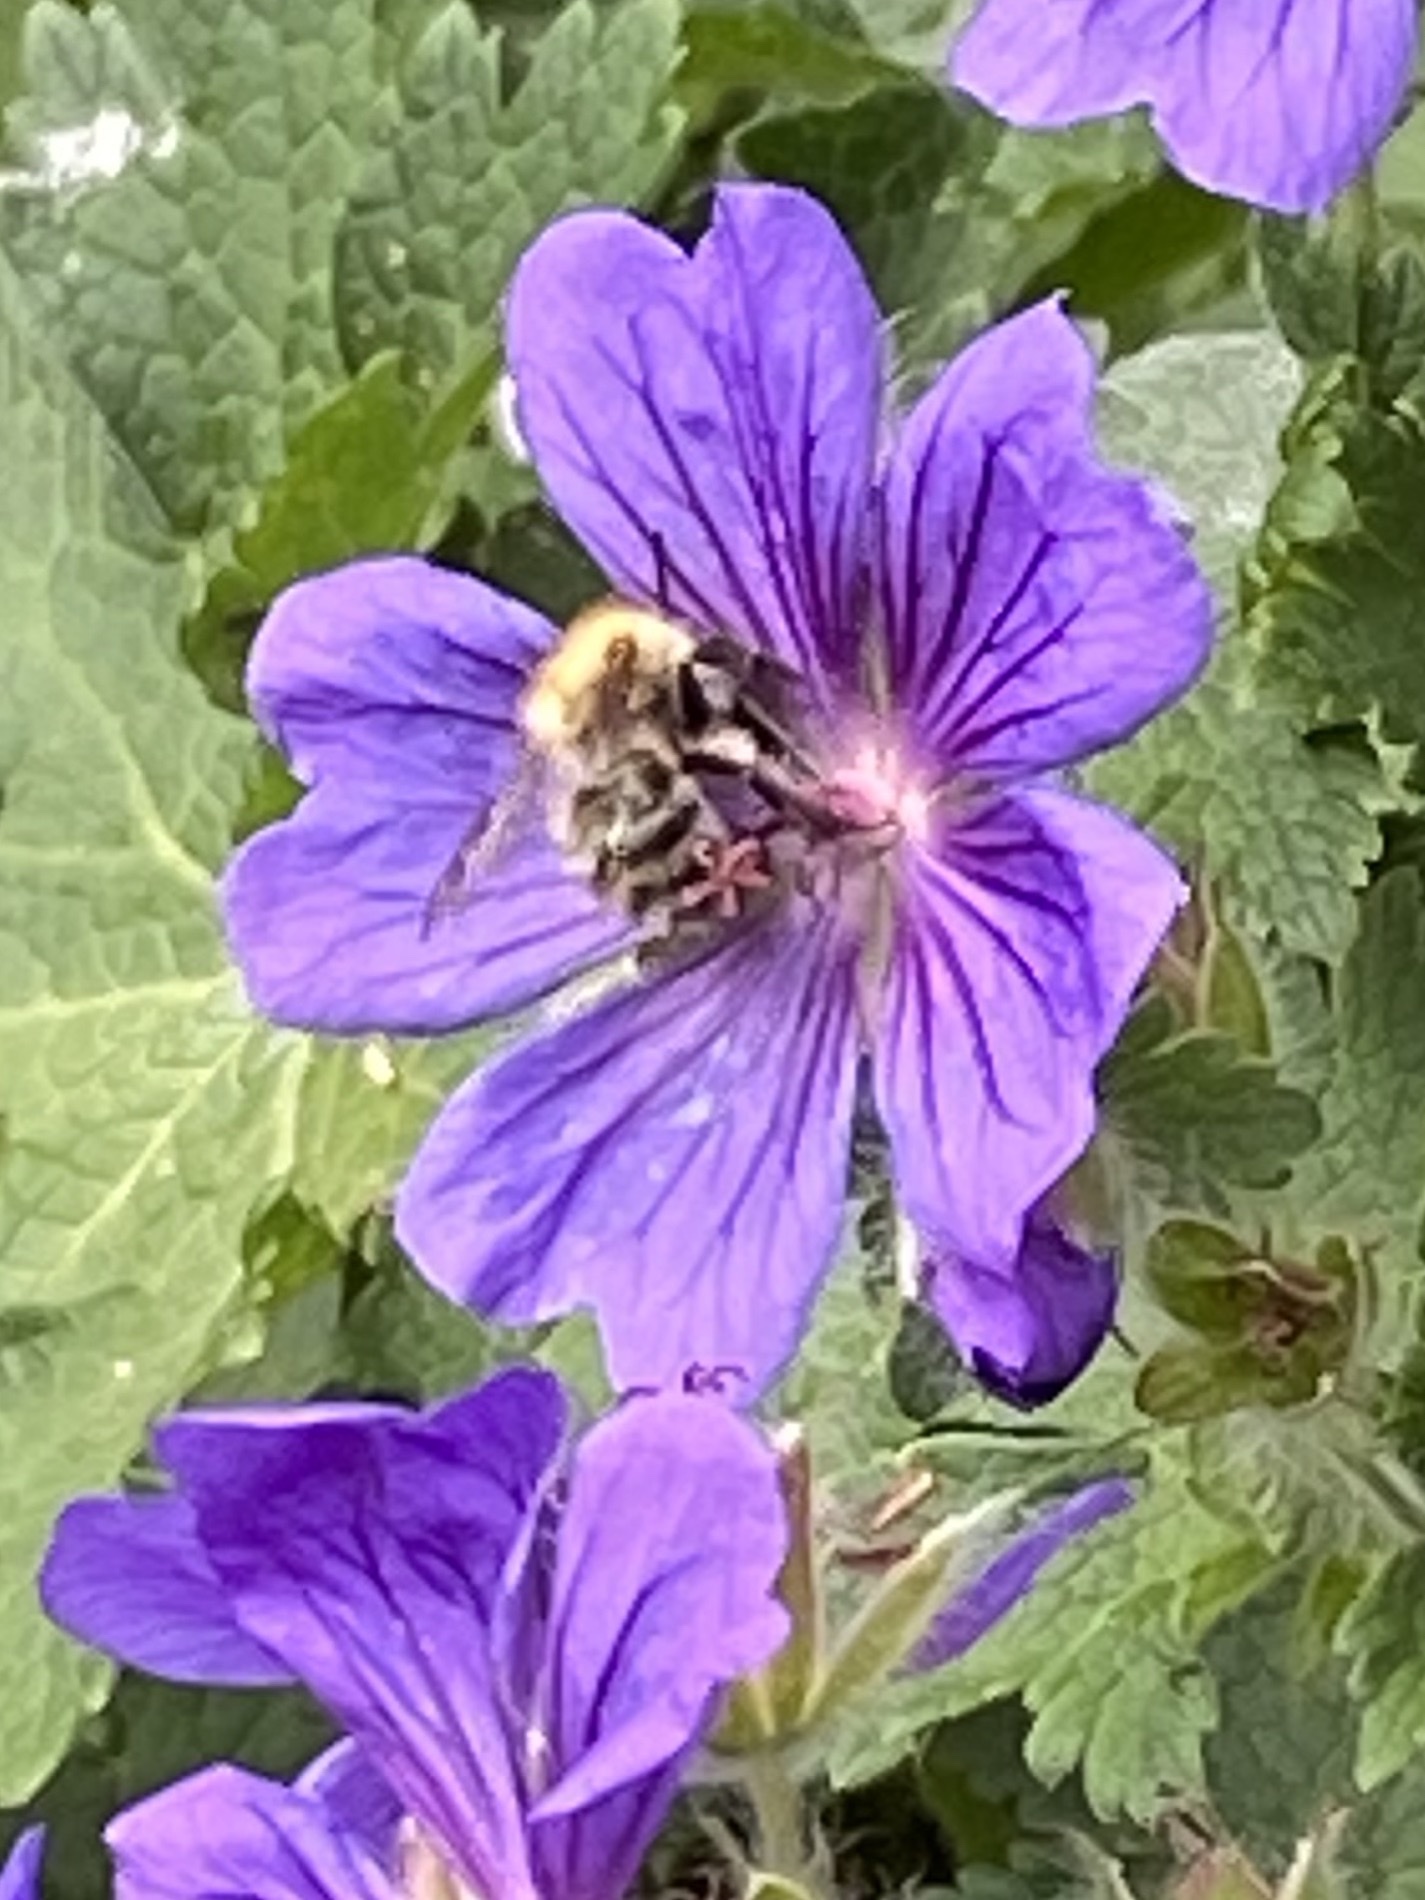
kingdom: Animalia
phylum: Arthropoda
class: Insecta
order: Hymenoptera
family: Apidae
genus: Bombus
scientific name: Bombus pascuorum
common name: Common carder bee
